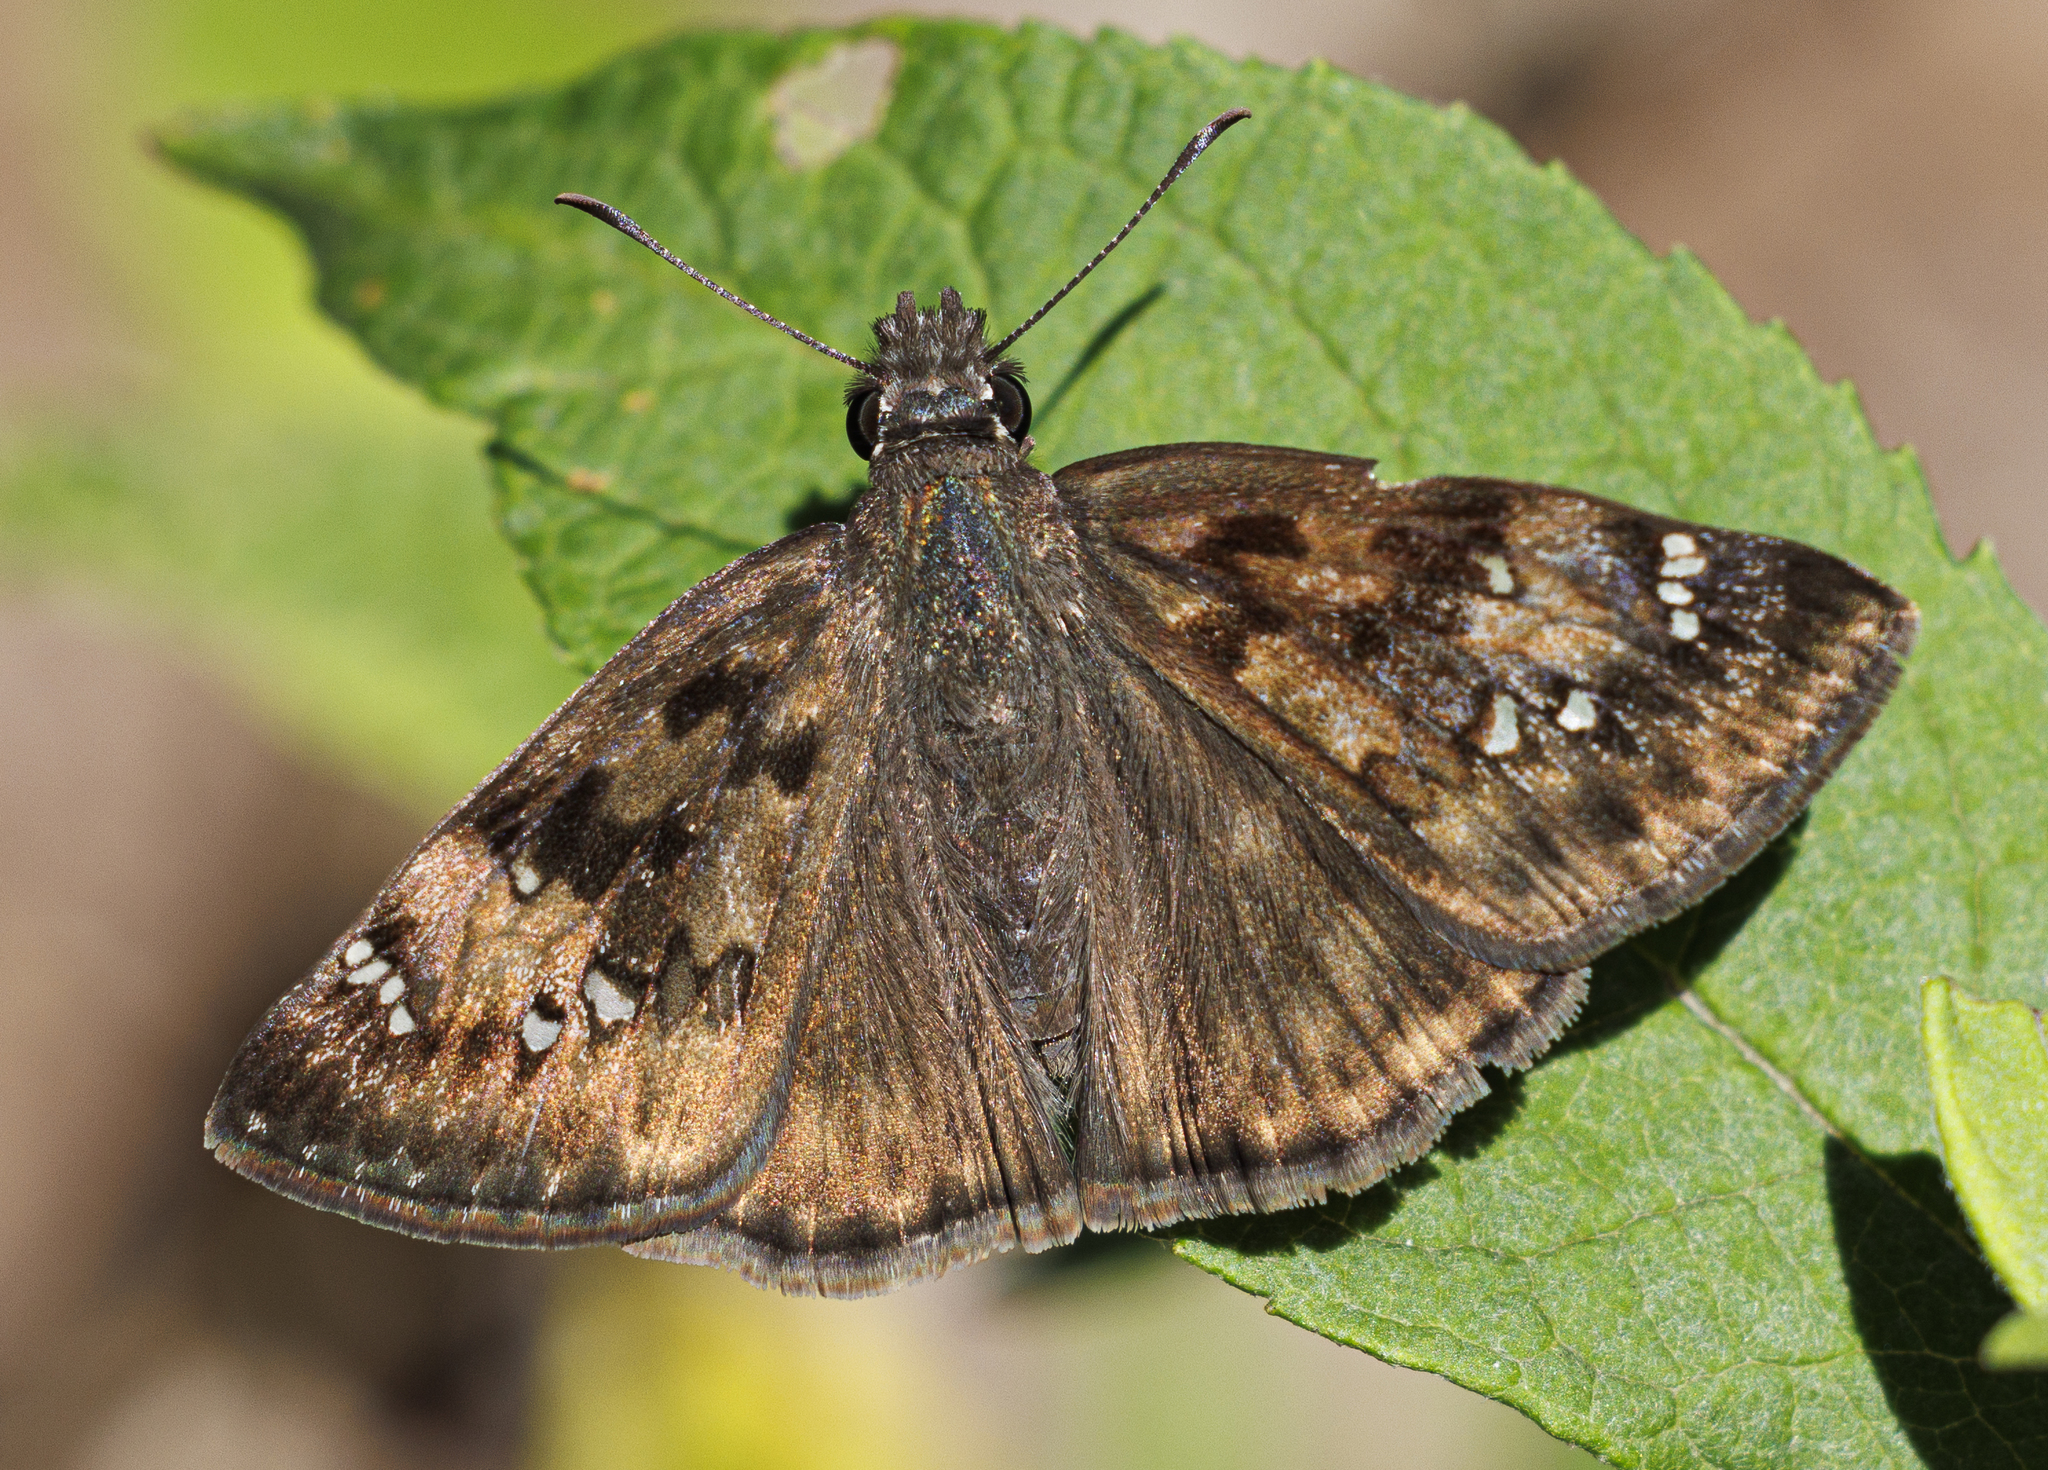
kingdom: Animalia
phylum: Arthropoda
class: Insecta
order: Lepidoptera
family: Hesperiidae
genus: Erynnis
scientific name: Erynnis horatius
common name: Horace's duskywing
